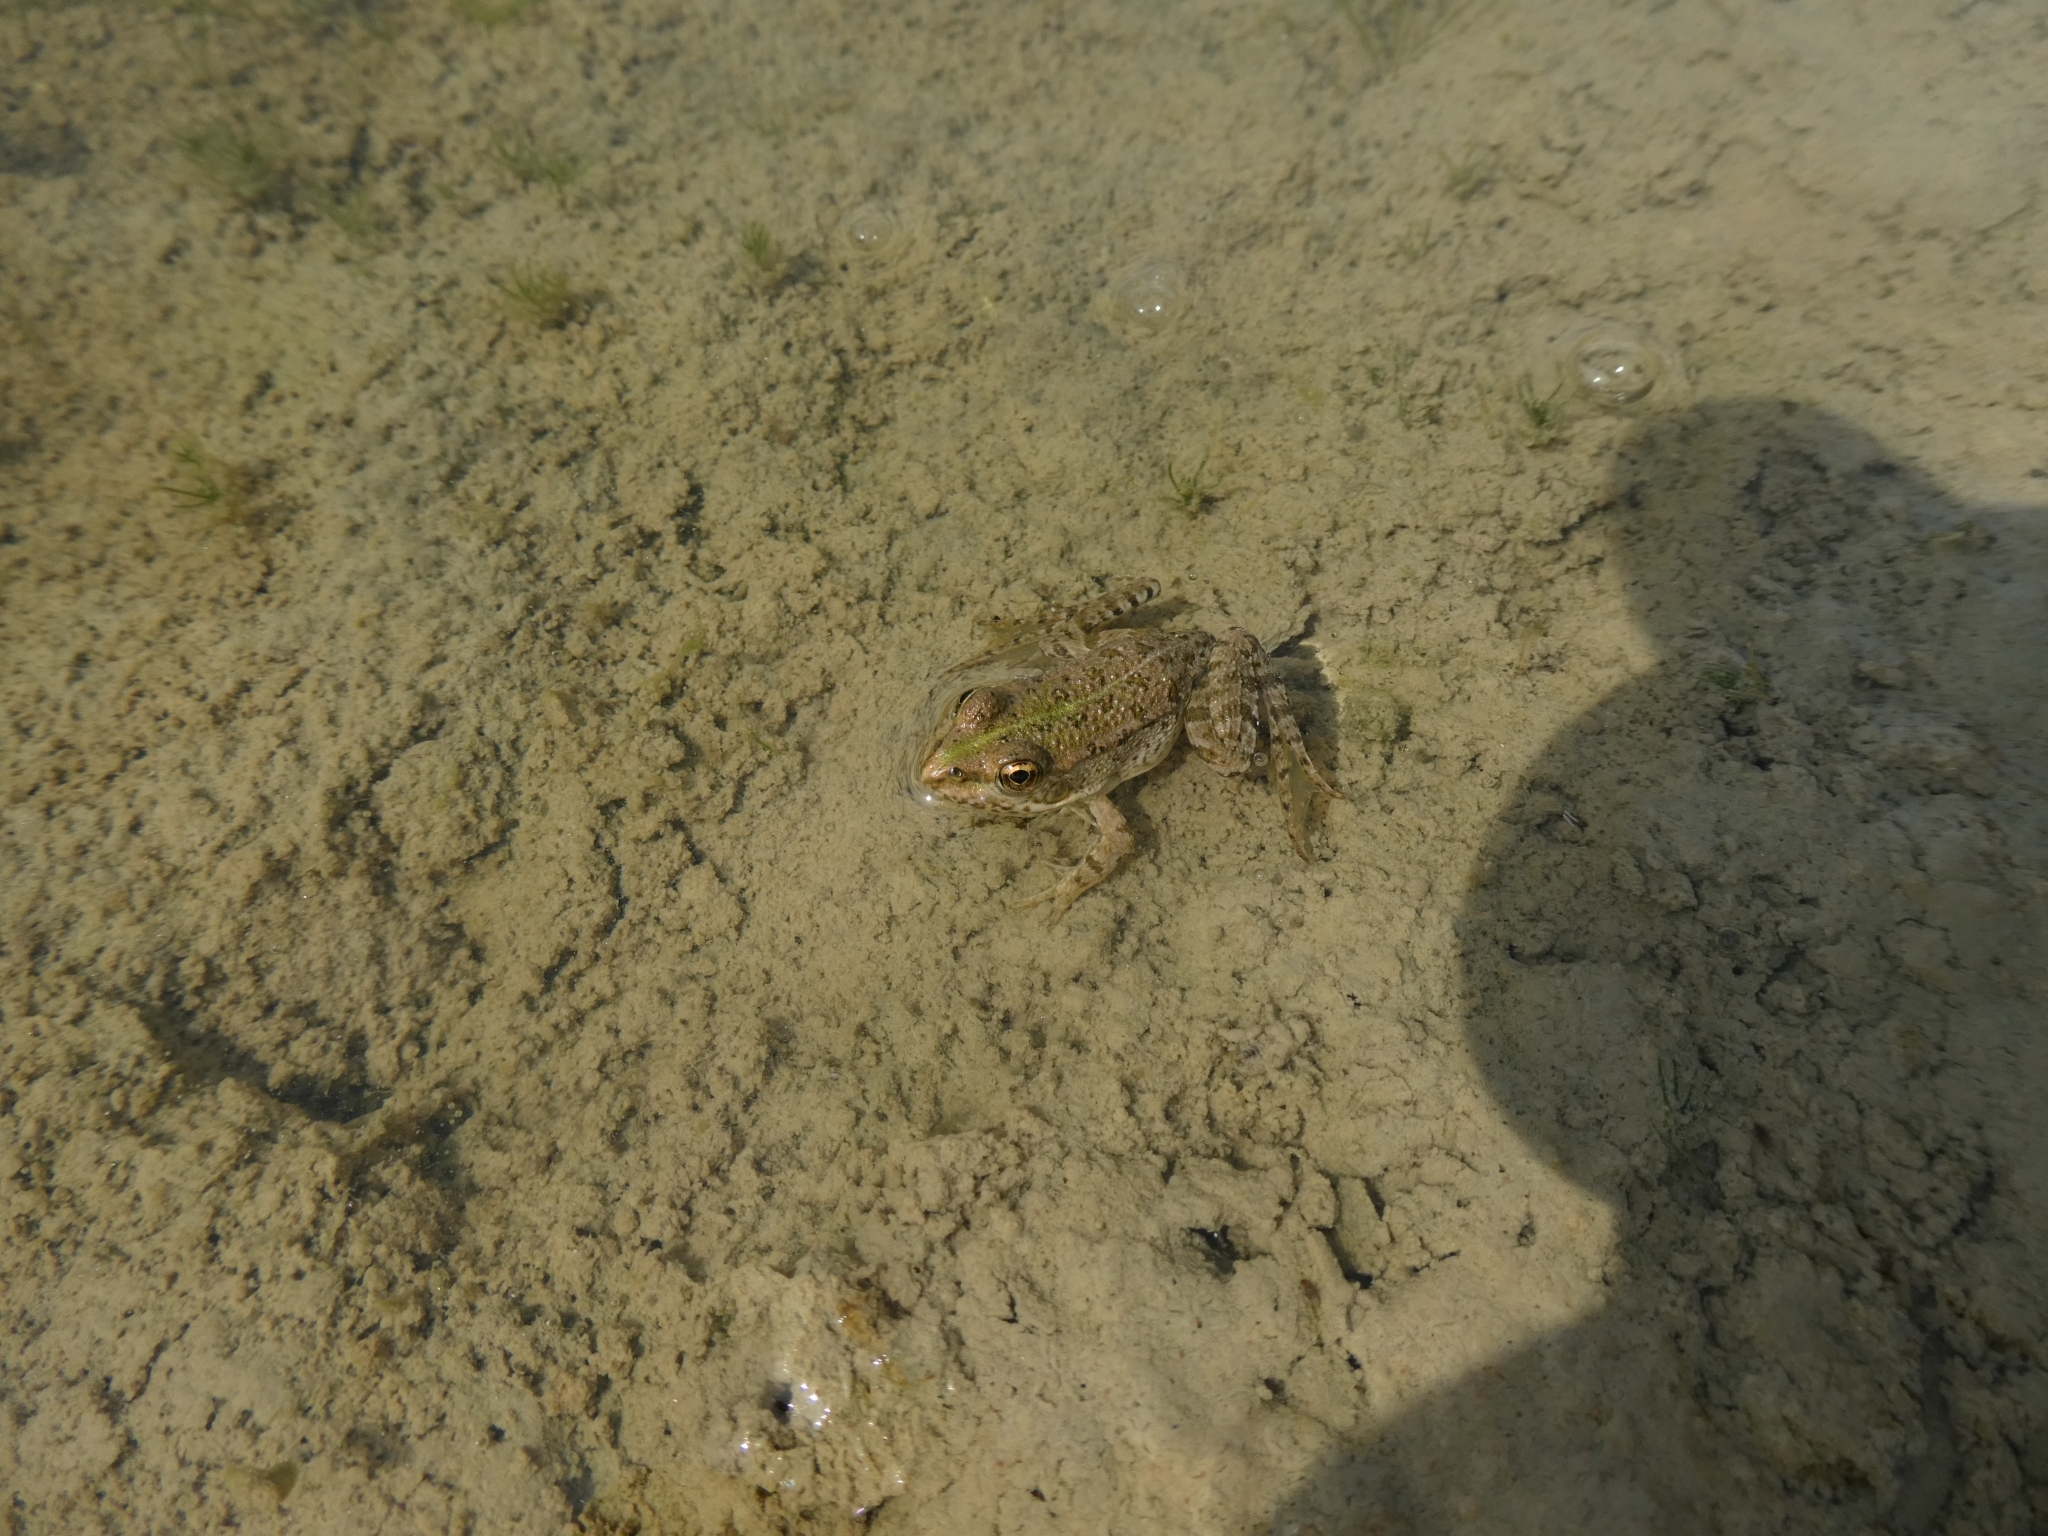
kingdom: Animalia
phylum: Chordata
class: Amphibia
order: Anura
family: Ranidae
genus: Pelophylax
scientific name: Pelophylax ridibundus
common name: Marsh frog
